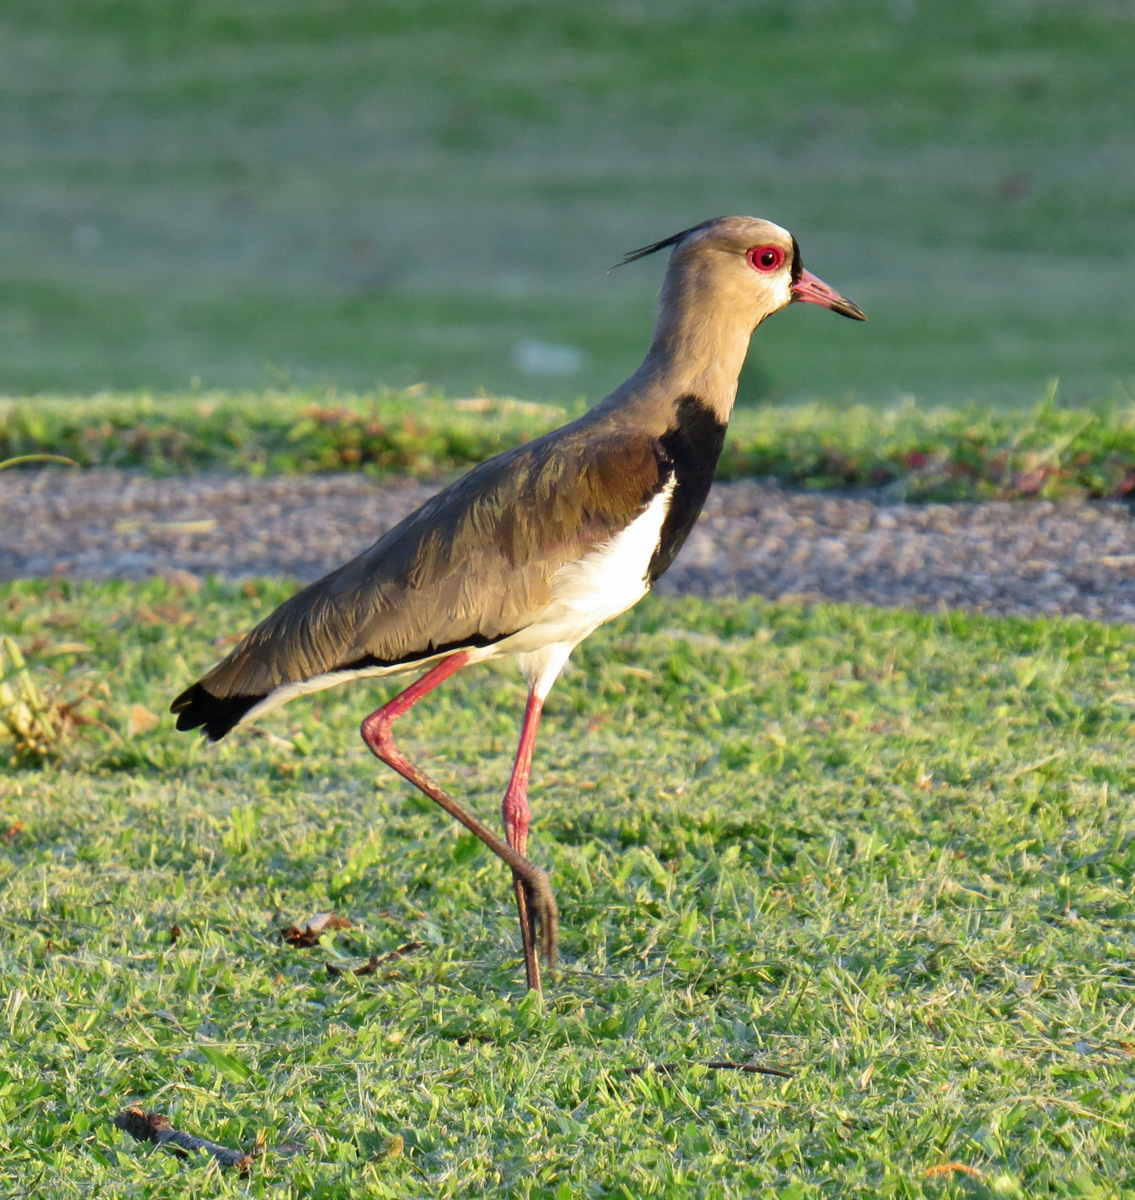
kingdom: Animalia
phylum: Chordata
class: Aves
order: Charadriiformes
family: Charadriidae
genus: Vanellus
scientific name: Vanellus chilensis
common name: Southern lapwing
